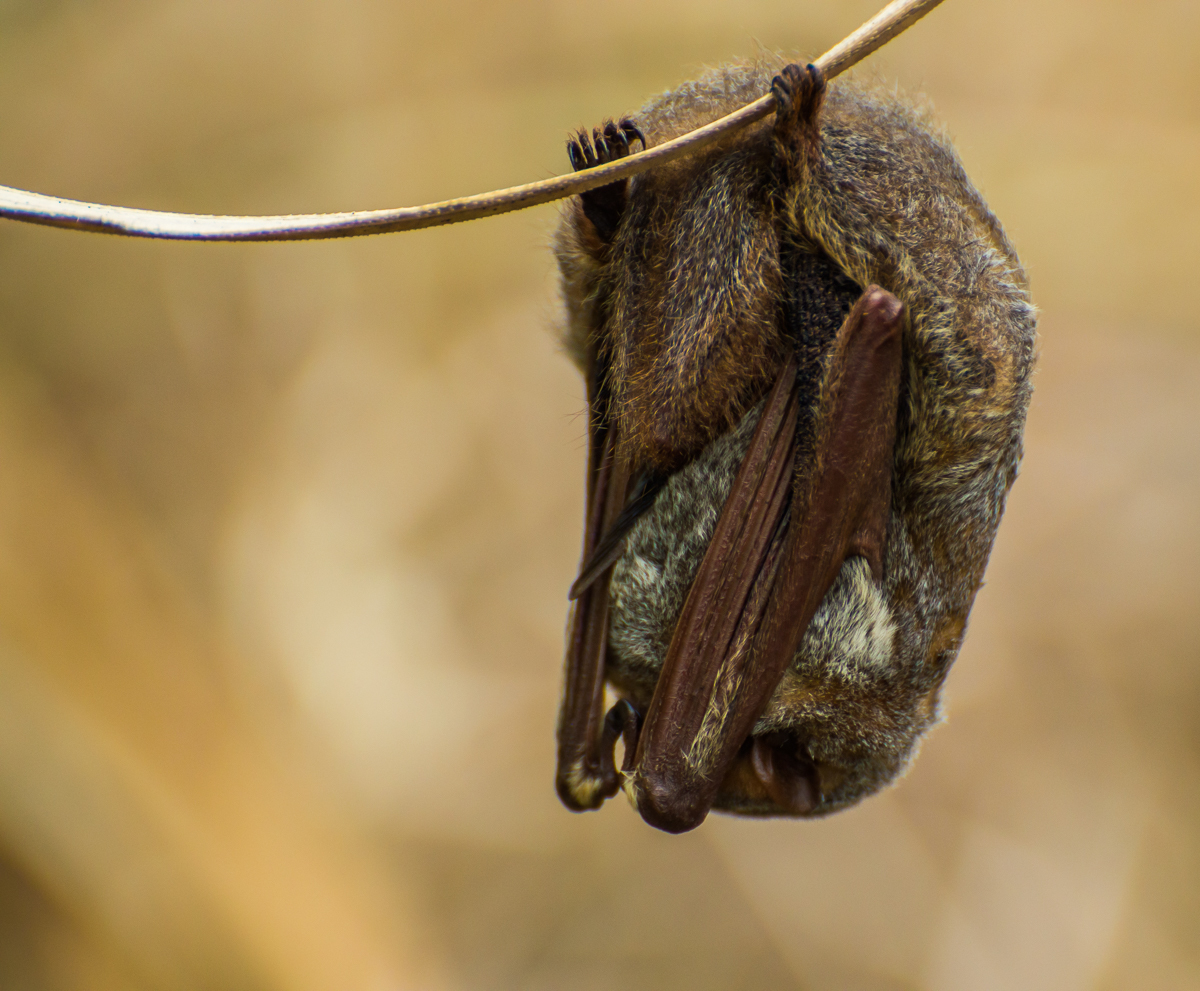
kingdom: Animalia
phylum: Chordata
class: Mammalia
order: Chiroptera
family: Vespertilionidae
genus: Lasiurus
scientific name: Lasiurus blossevillii
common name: Southern red bat
